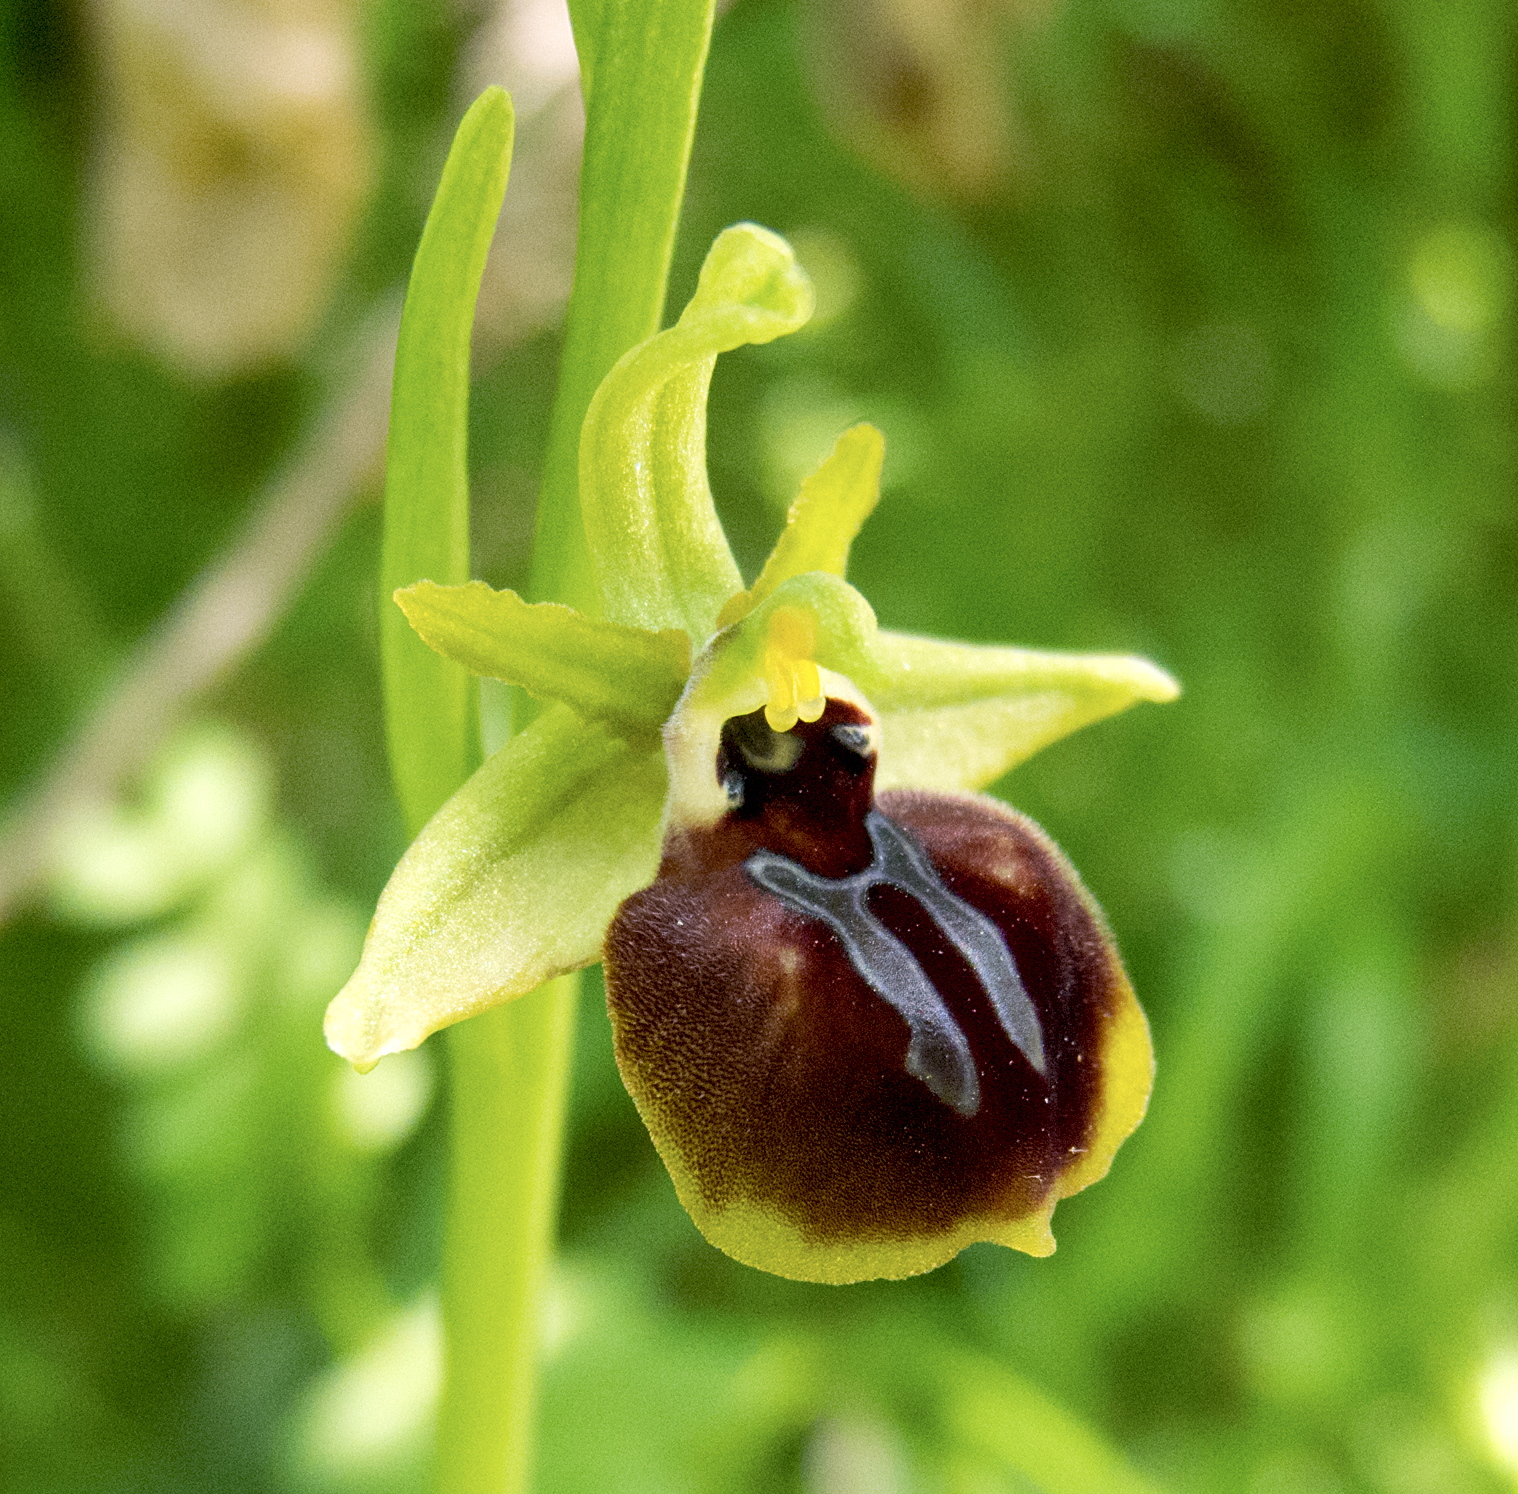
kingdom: Plantae
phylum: Tracheophyta
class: Liliopsida
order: Asparagales
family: Orchidaceae
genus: Ophrys
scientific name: Ophrys sphegodes
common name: Early spider-orchid
